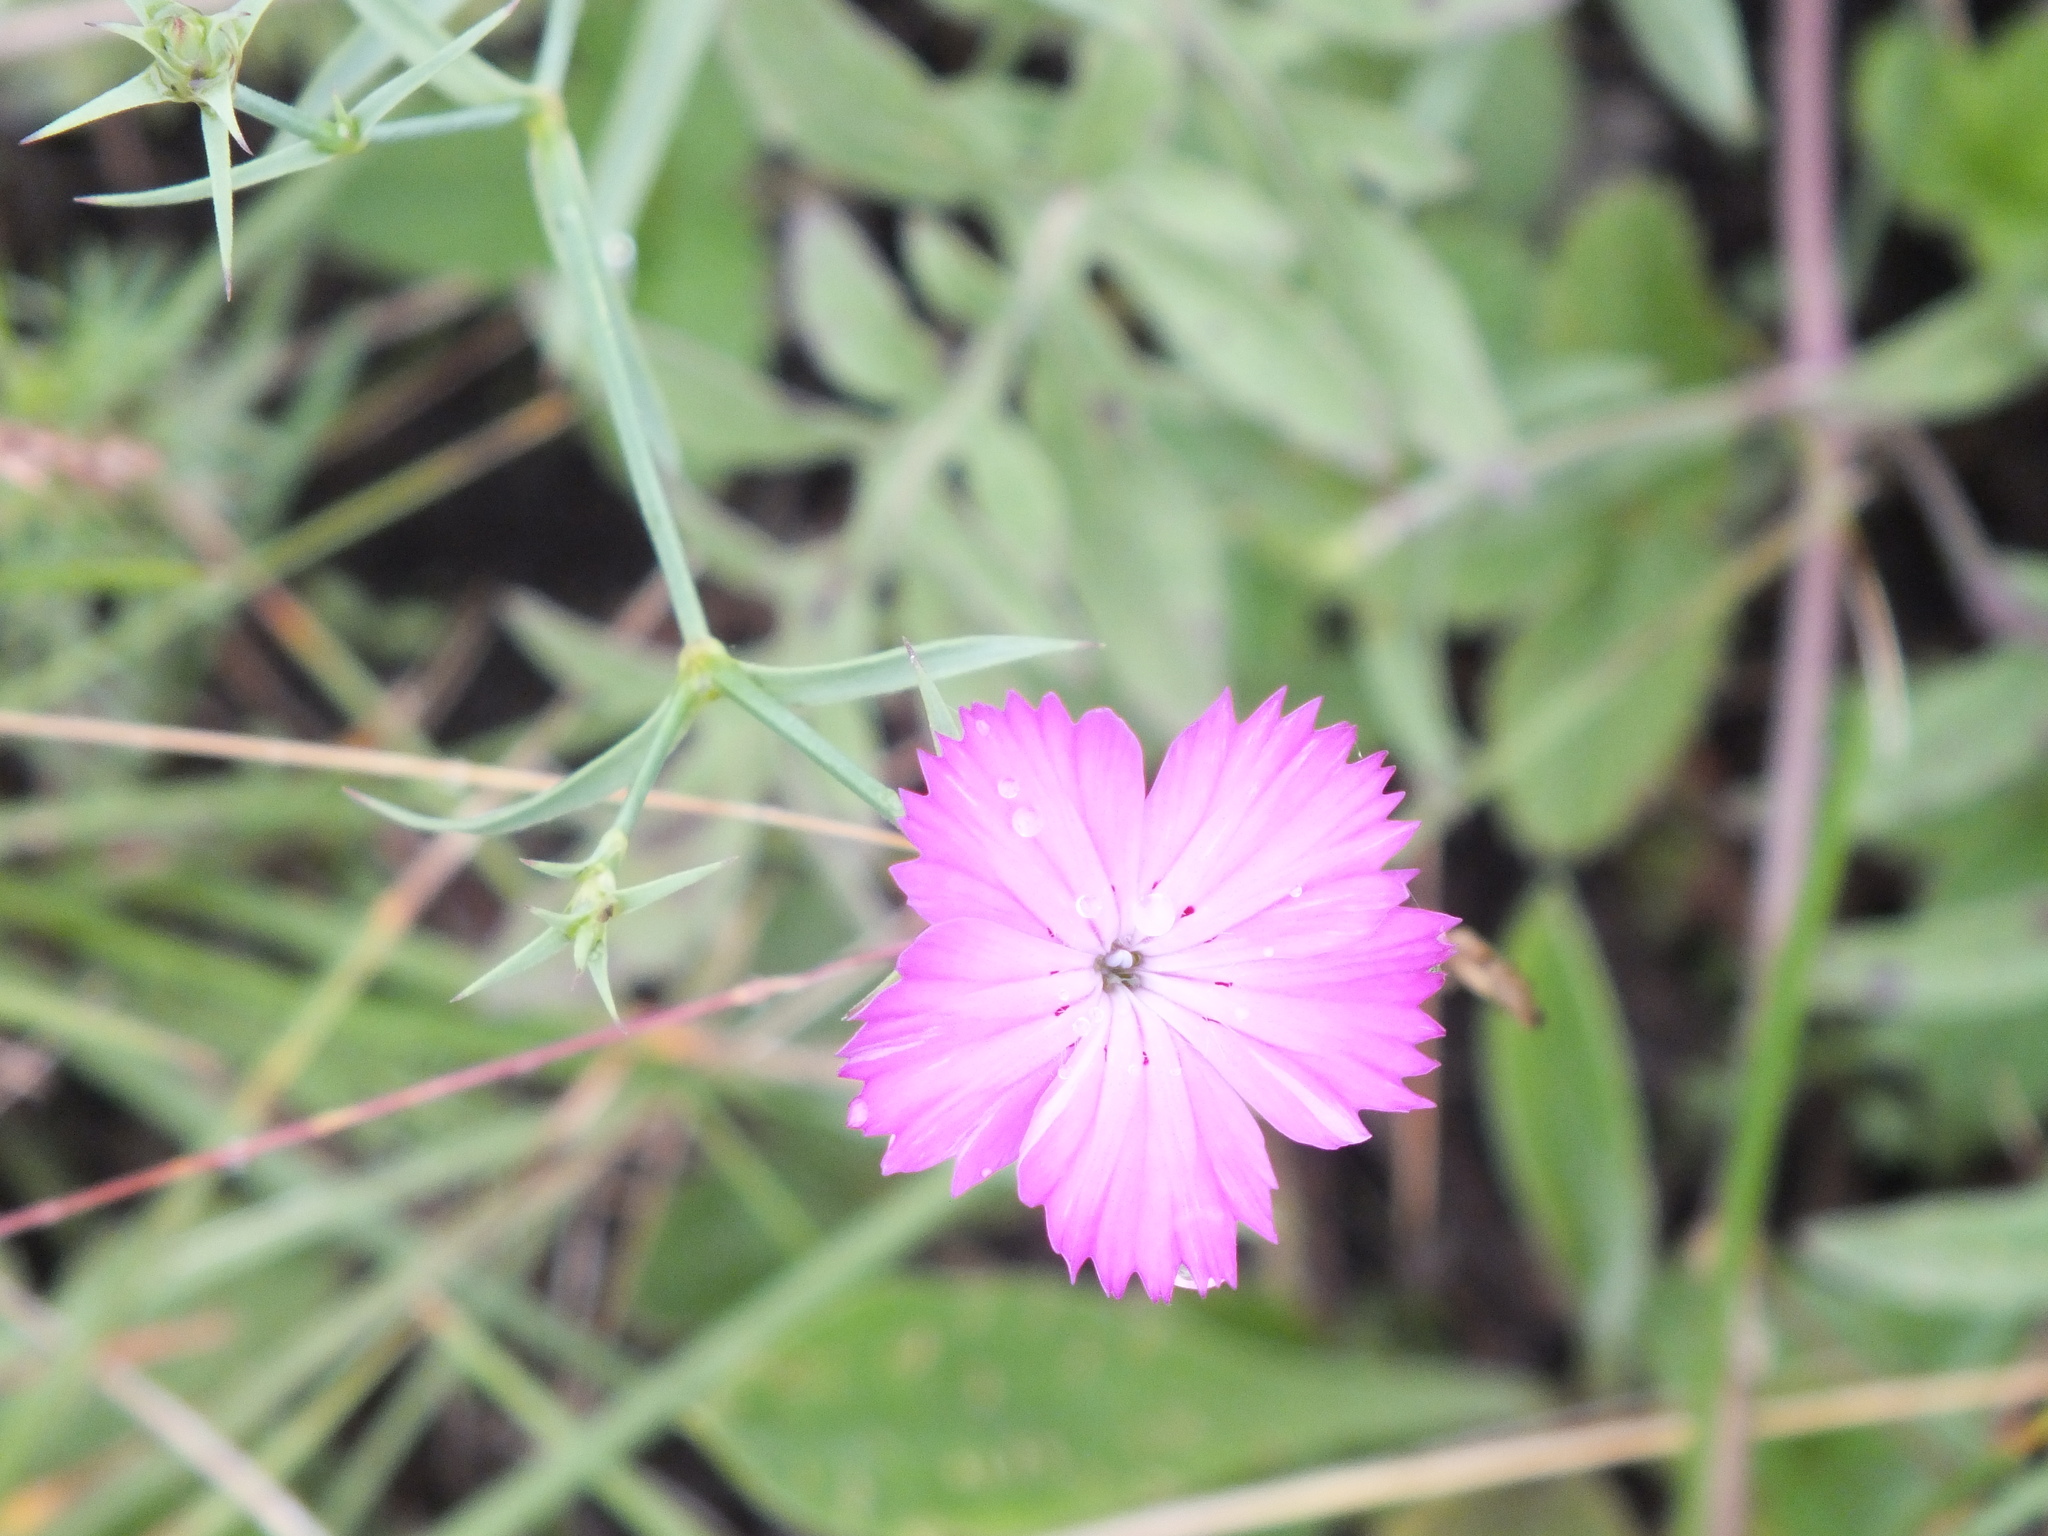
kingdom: Plantae
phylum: Tracheophyta
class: Magnoliopsida
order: Caryophyllales
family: Caryophyllaceae
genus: Dianthus
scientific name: Dianthus chinensis
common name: Rainbow pink
